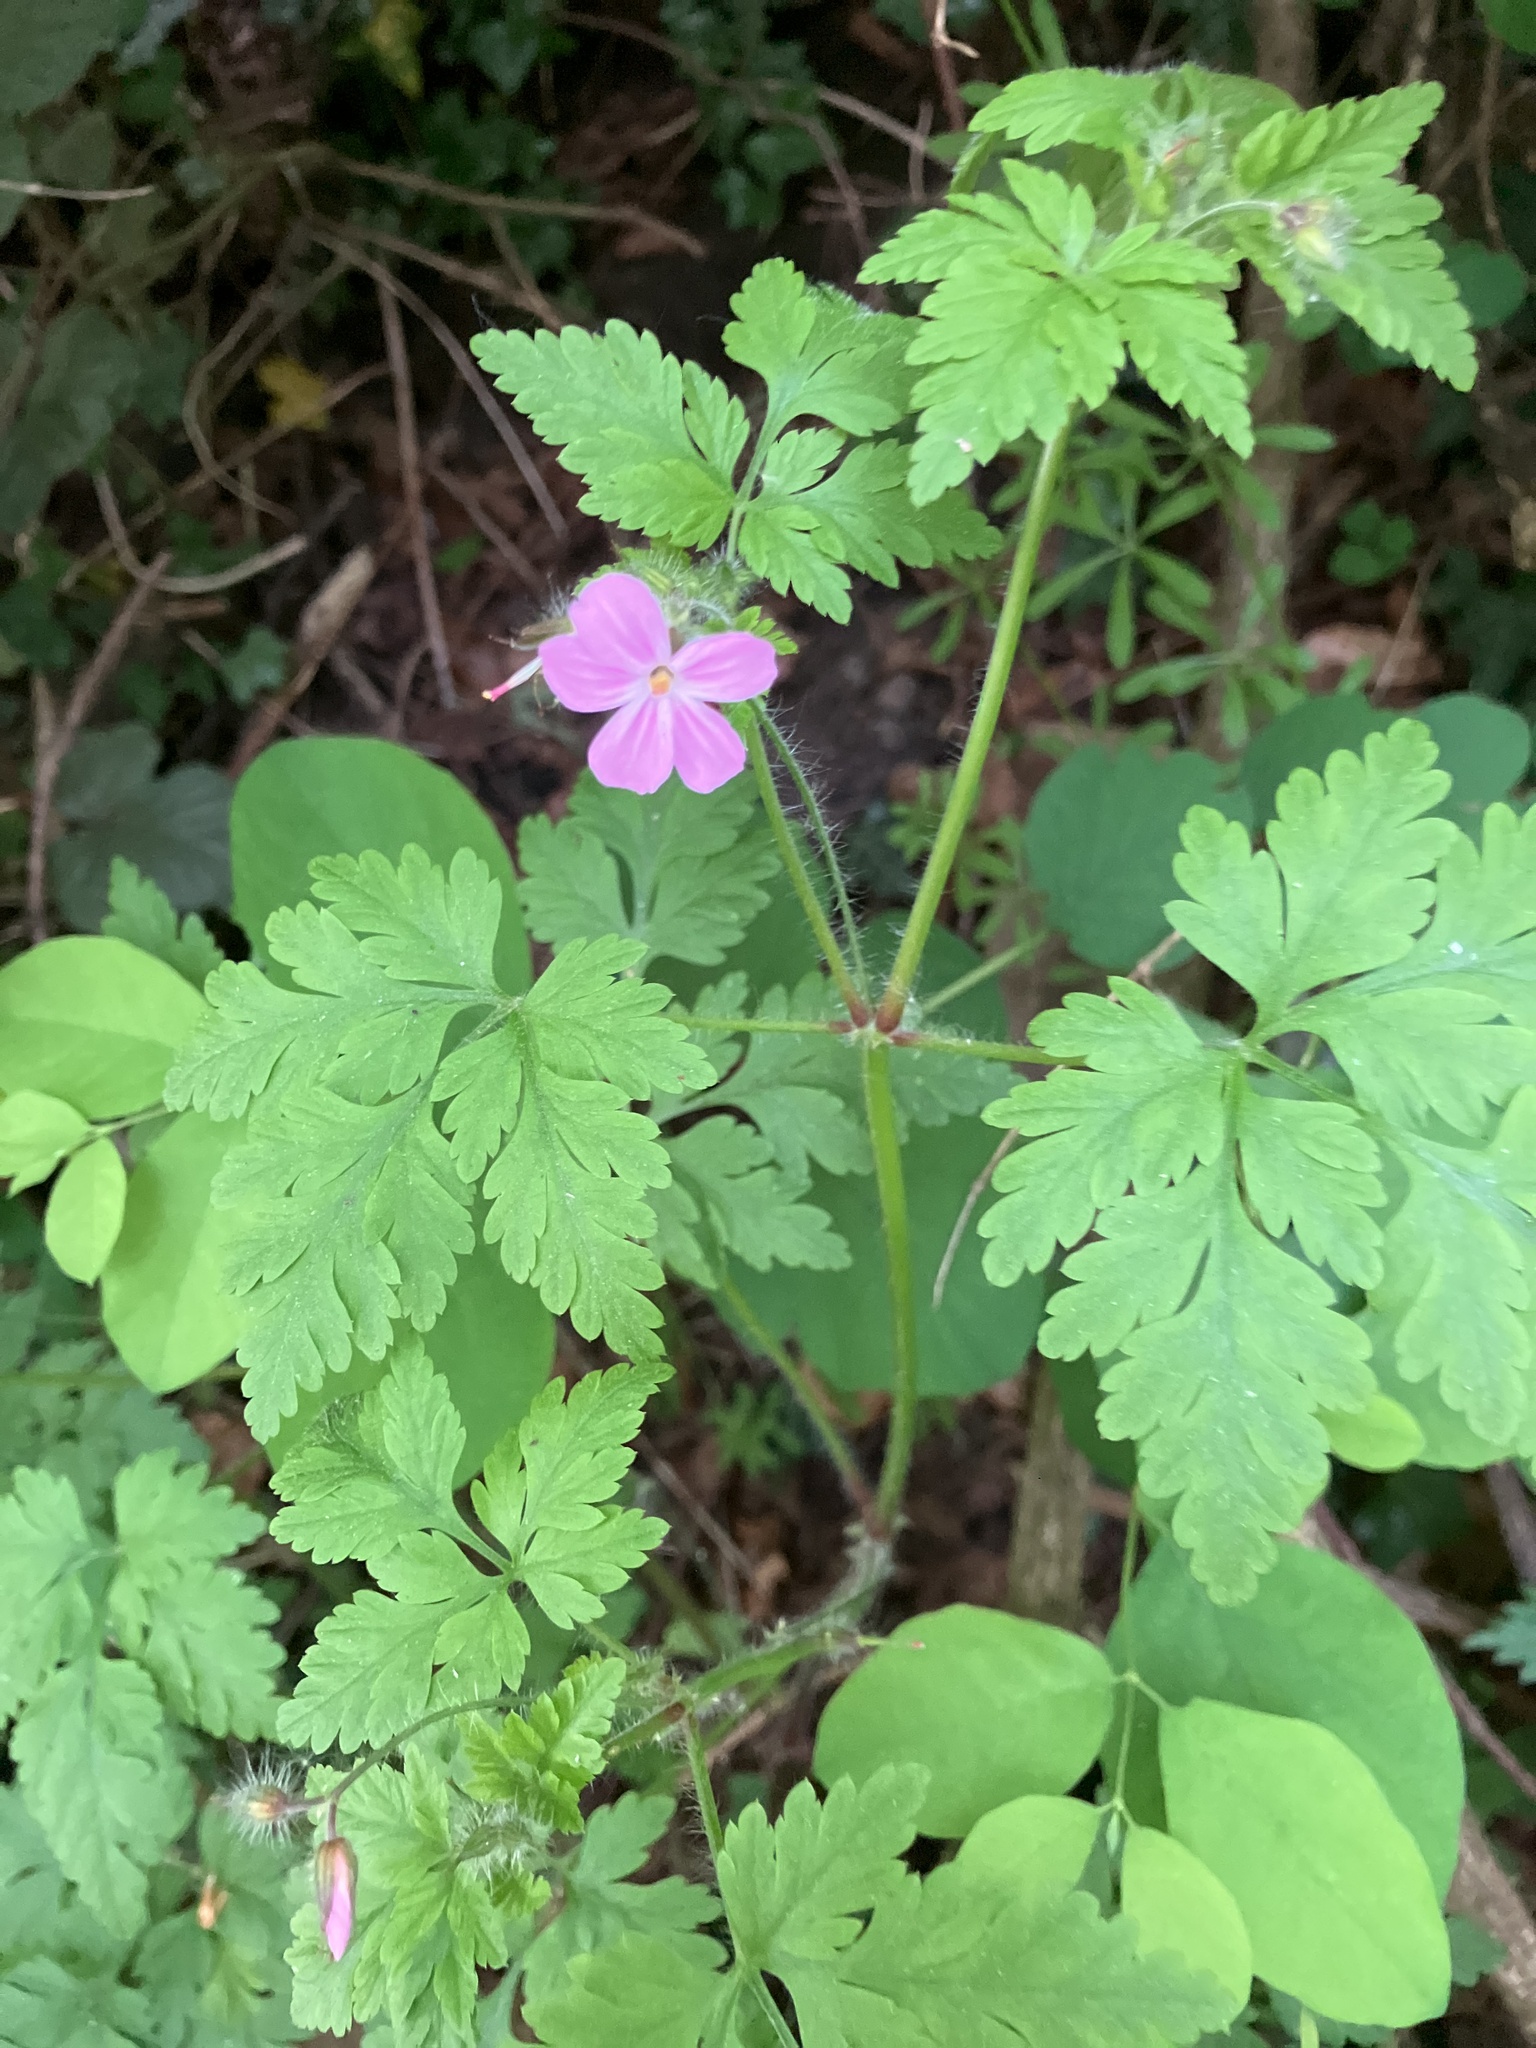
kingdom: Plantae
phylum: Tracheophyta
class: Magnoliopsida
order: Geraniales
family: Geraniaceae
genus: Geranium
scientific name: Geranium robertianum
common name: Herb-robert
